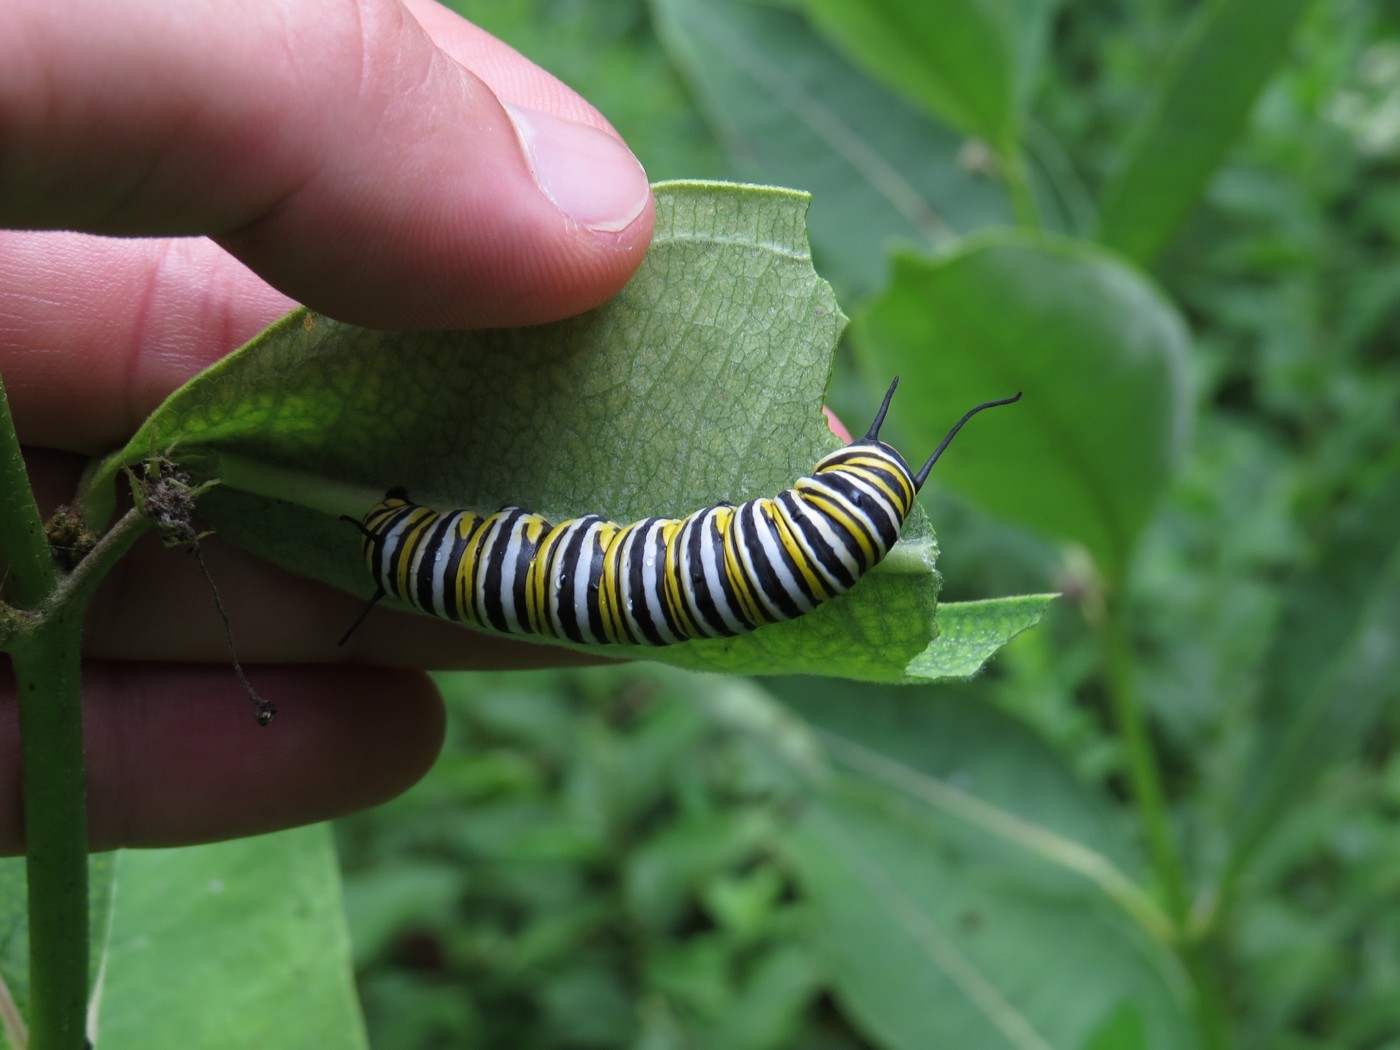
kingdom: Animalia
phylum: Arthropoda
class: Insecta
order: Lepidoptera
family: Nymphalidae
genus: Danaus
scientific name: Danaus plexippus
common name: Monarch
